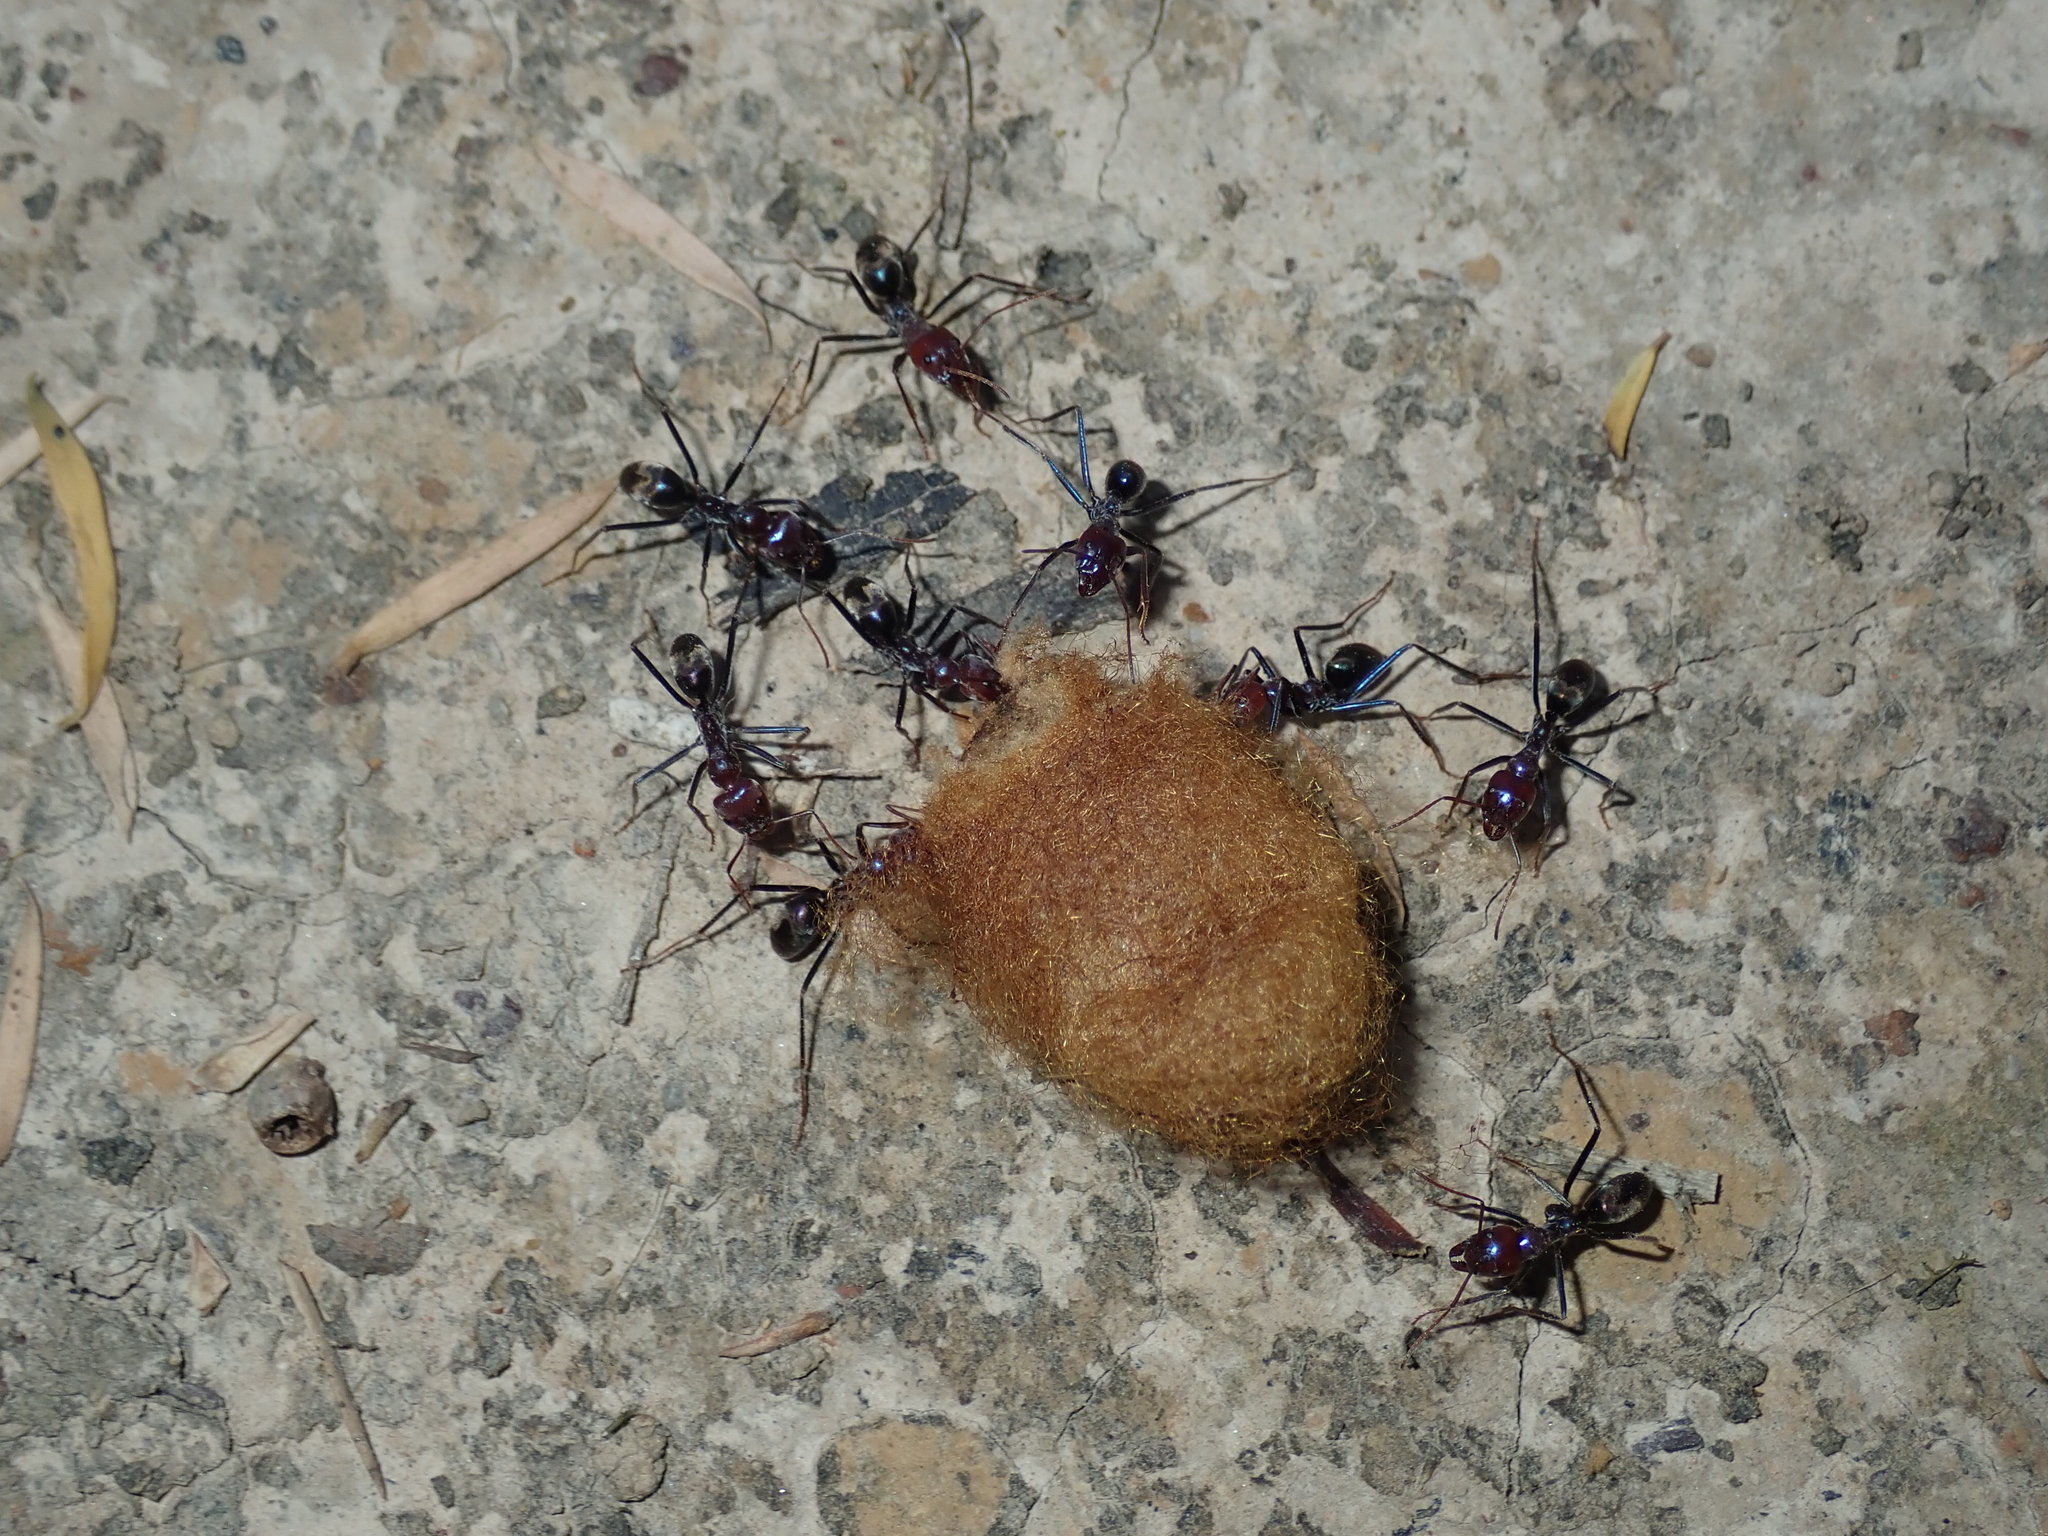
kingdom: Animalia
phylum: Arthropoda
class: Insecta
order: Hymenoptera
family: Formicidae
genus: Iridomyrmex
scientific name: Iridomyrmex purpureus
